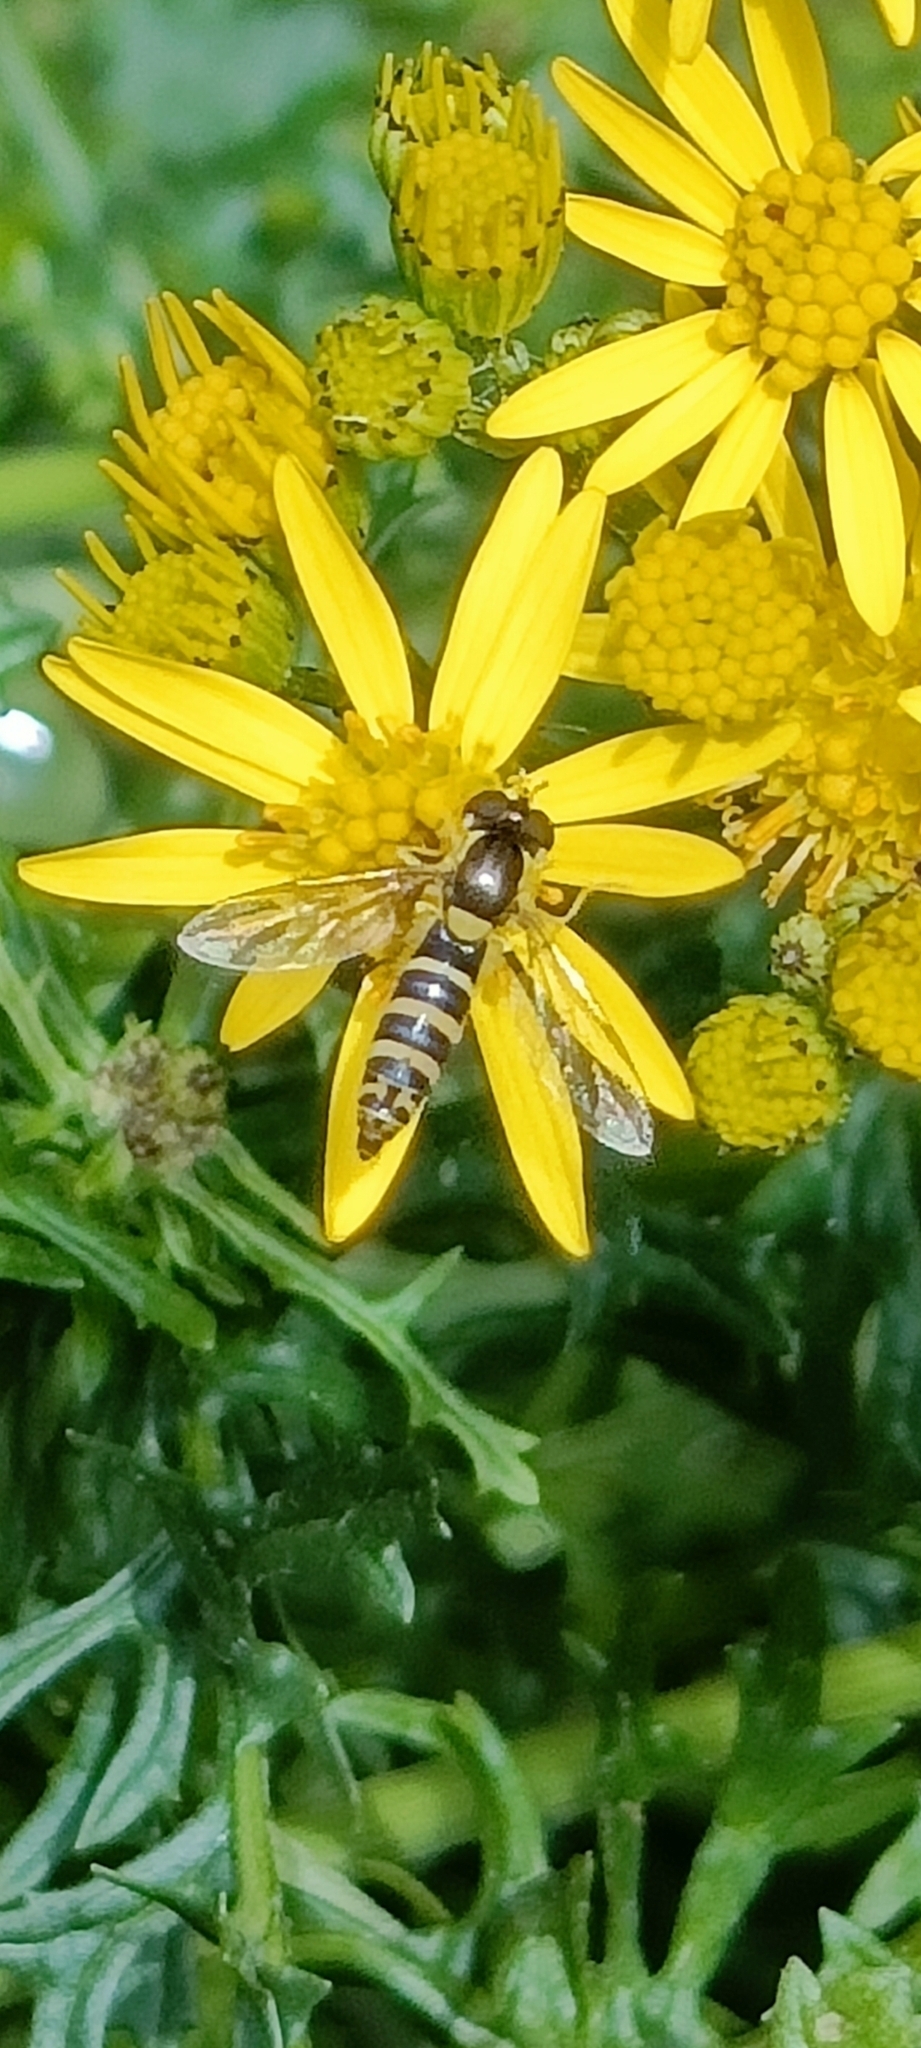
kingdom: Animalia
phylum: Arthropoda
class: Insecta
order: Diptera
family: Syrphidae
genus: Sphaerophoria
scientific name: Sphaerophoria
